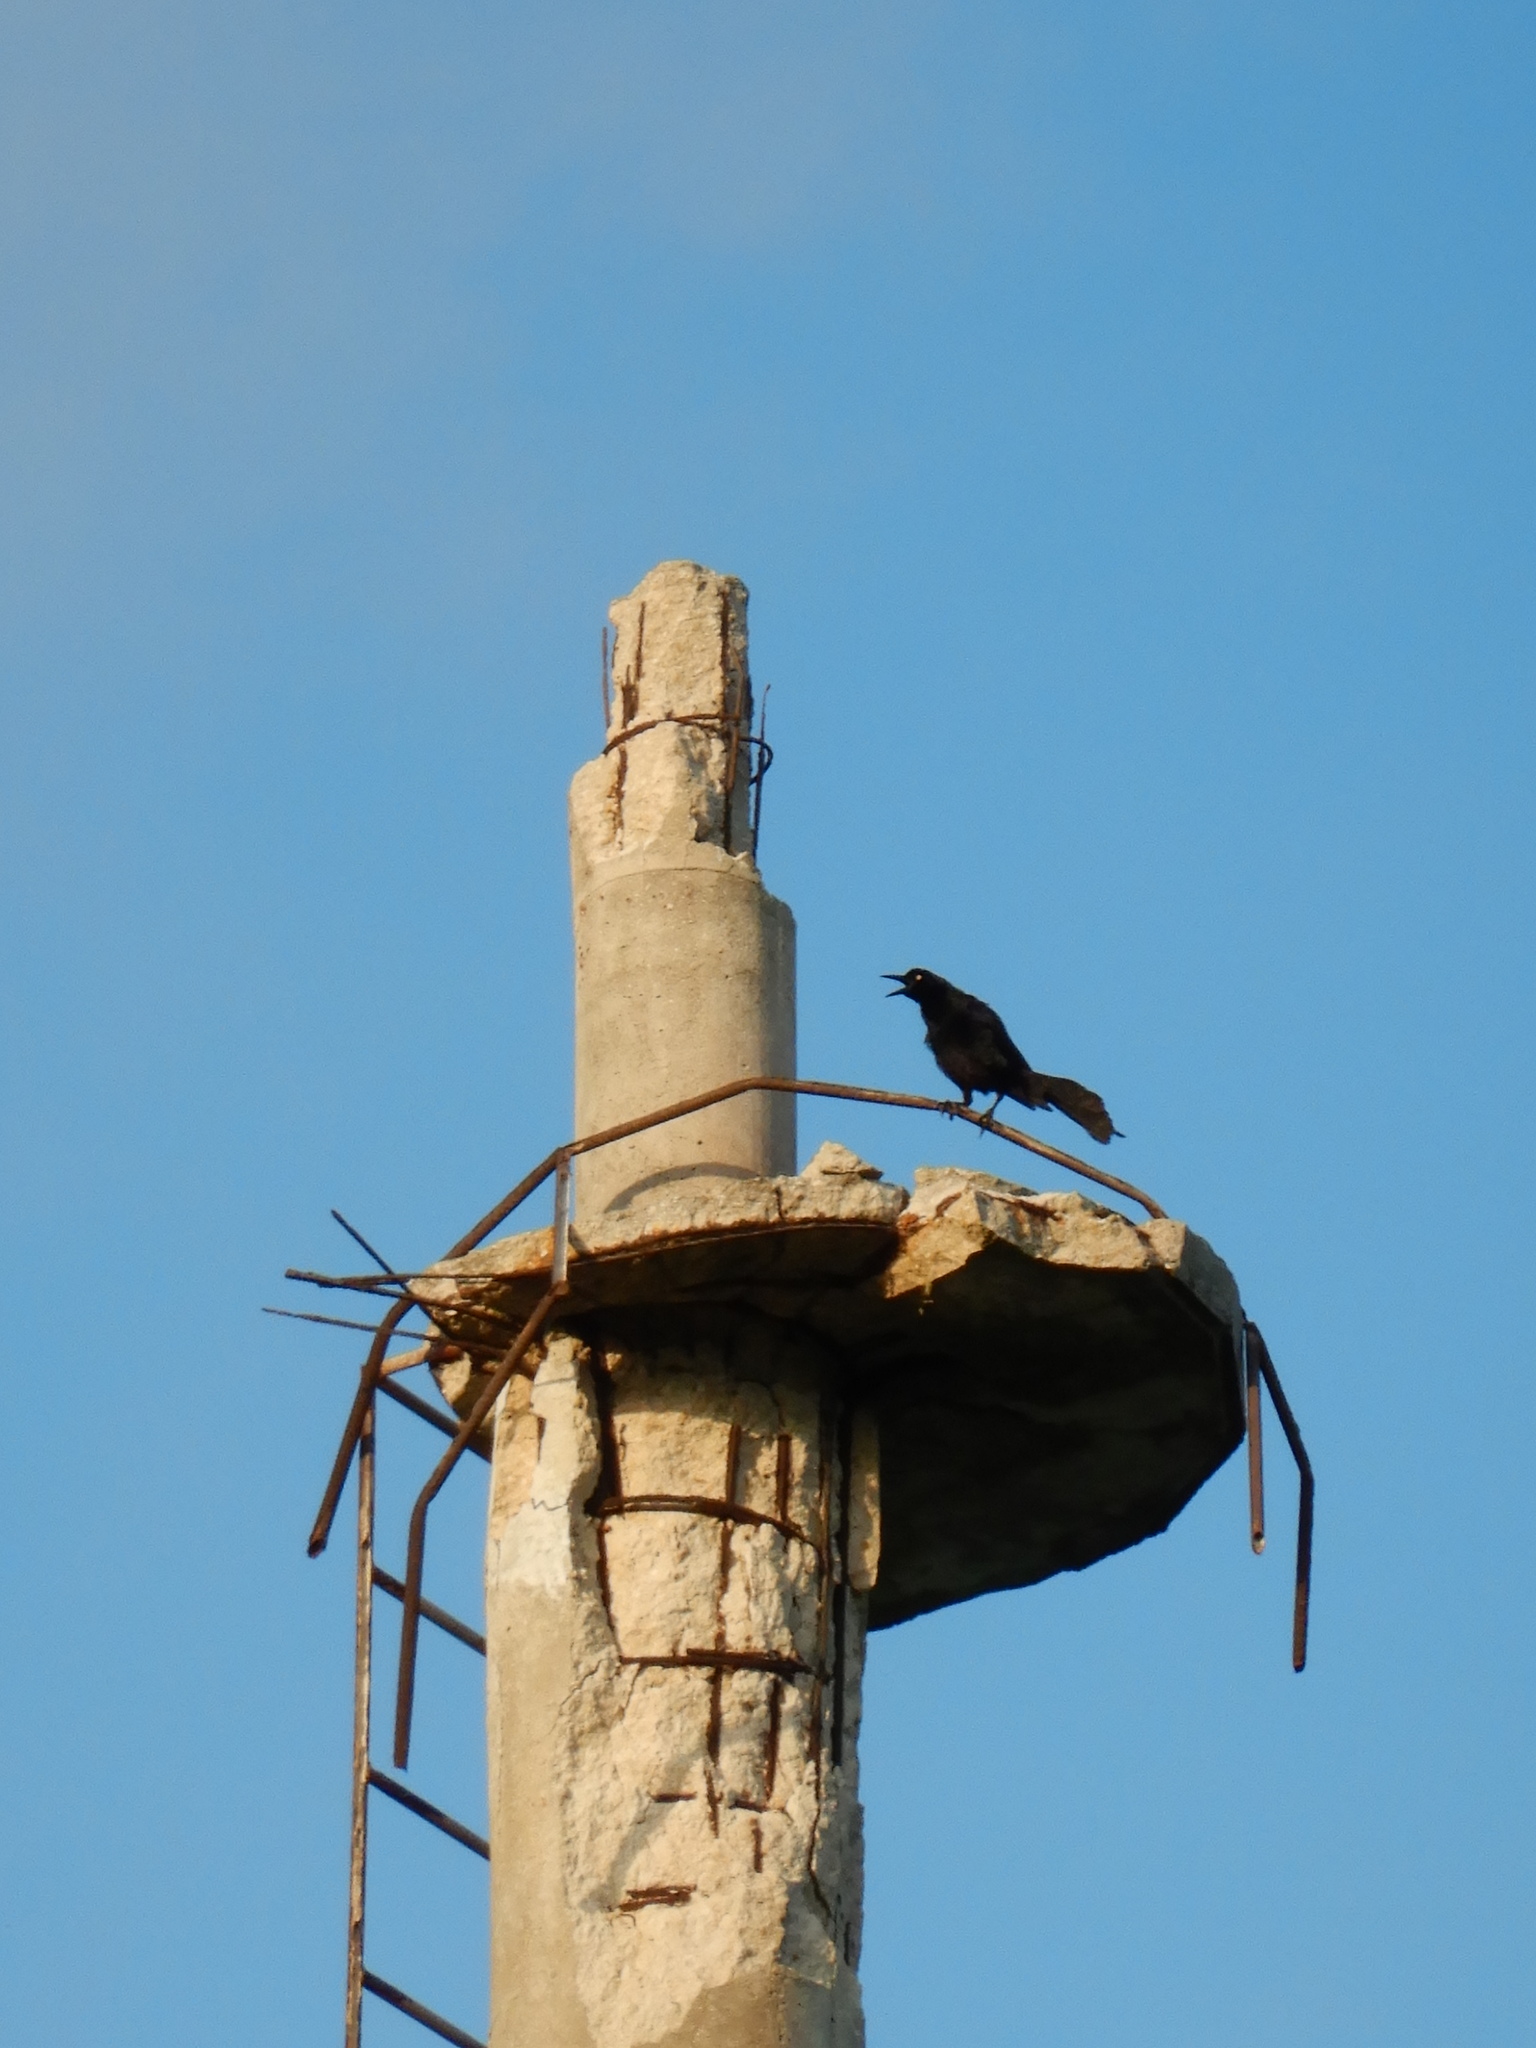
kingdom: Animalia
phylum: Chordata
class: Aves
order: Passeriformes
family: Icteridae
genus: Quiscalus
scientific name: Quiscalus mexicanus
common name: Great-tailed grackle
